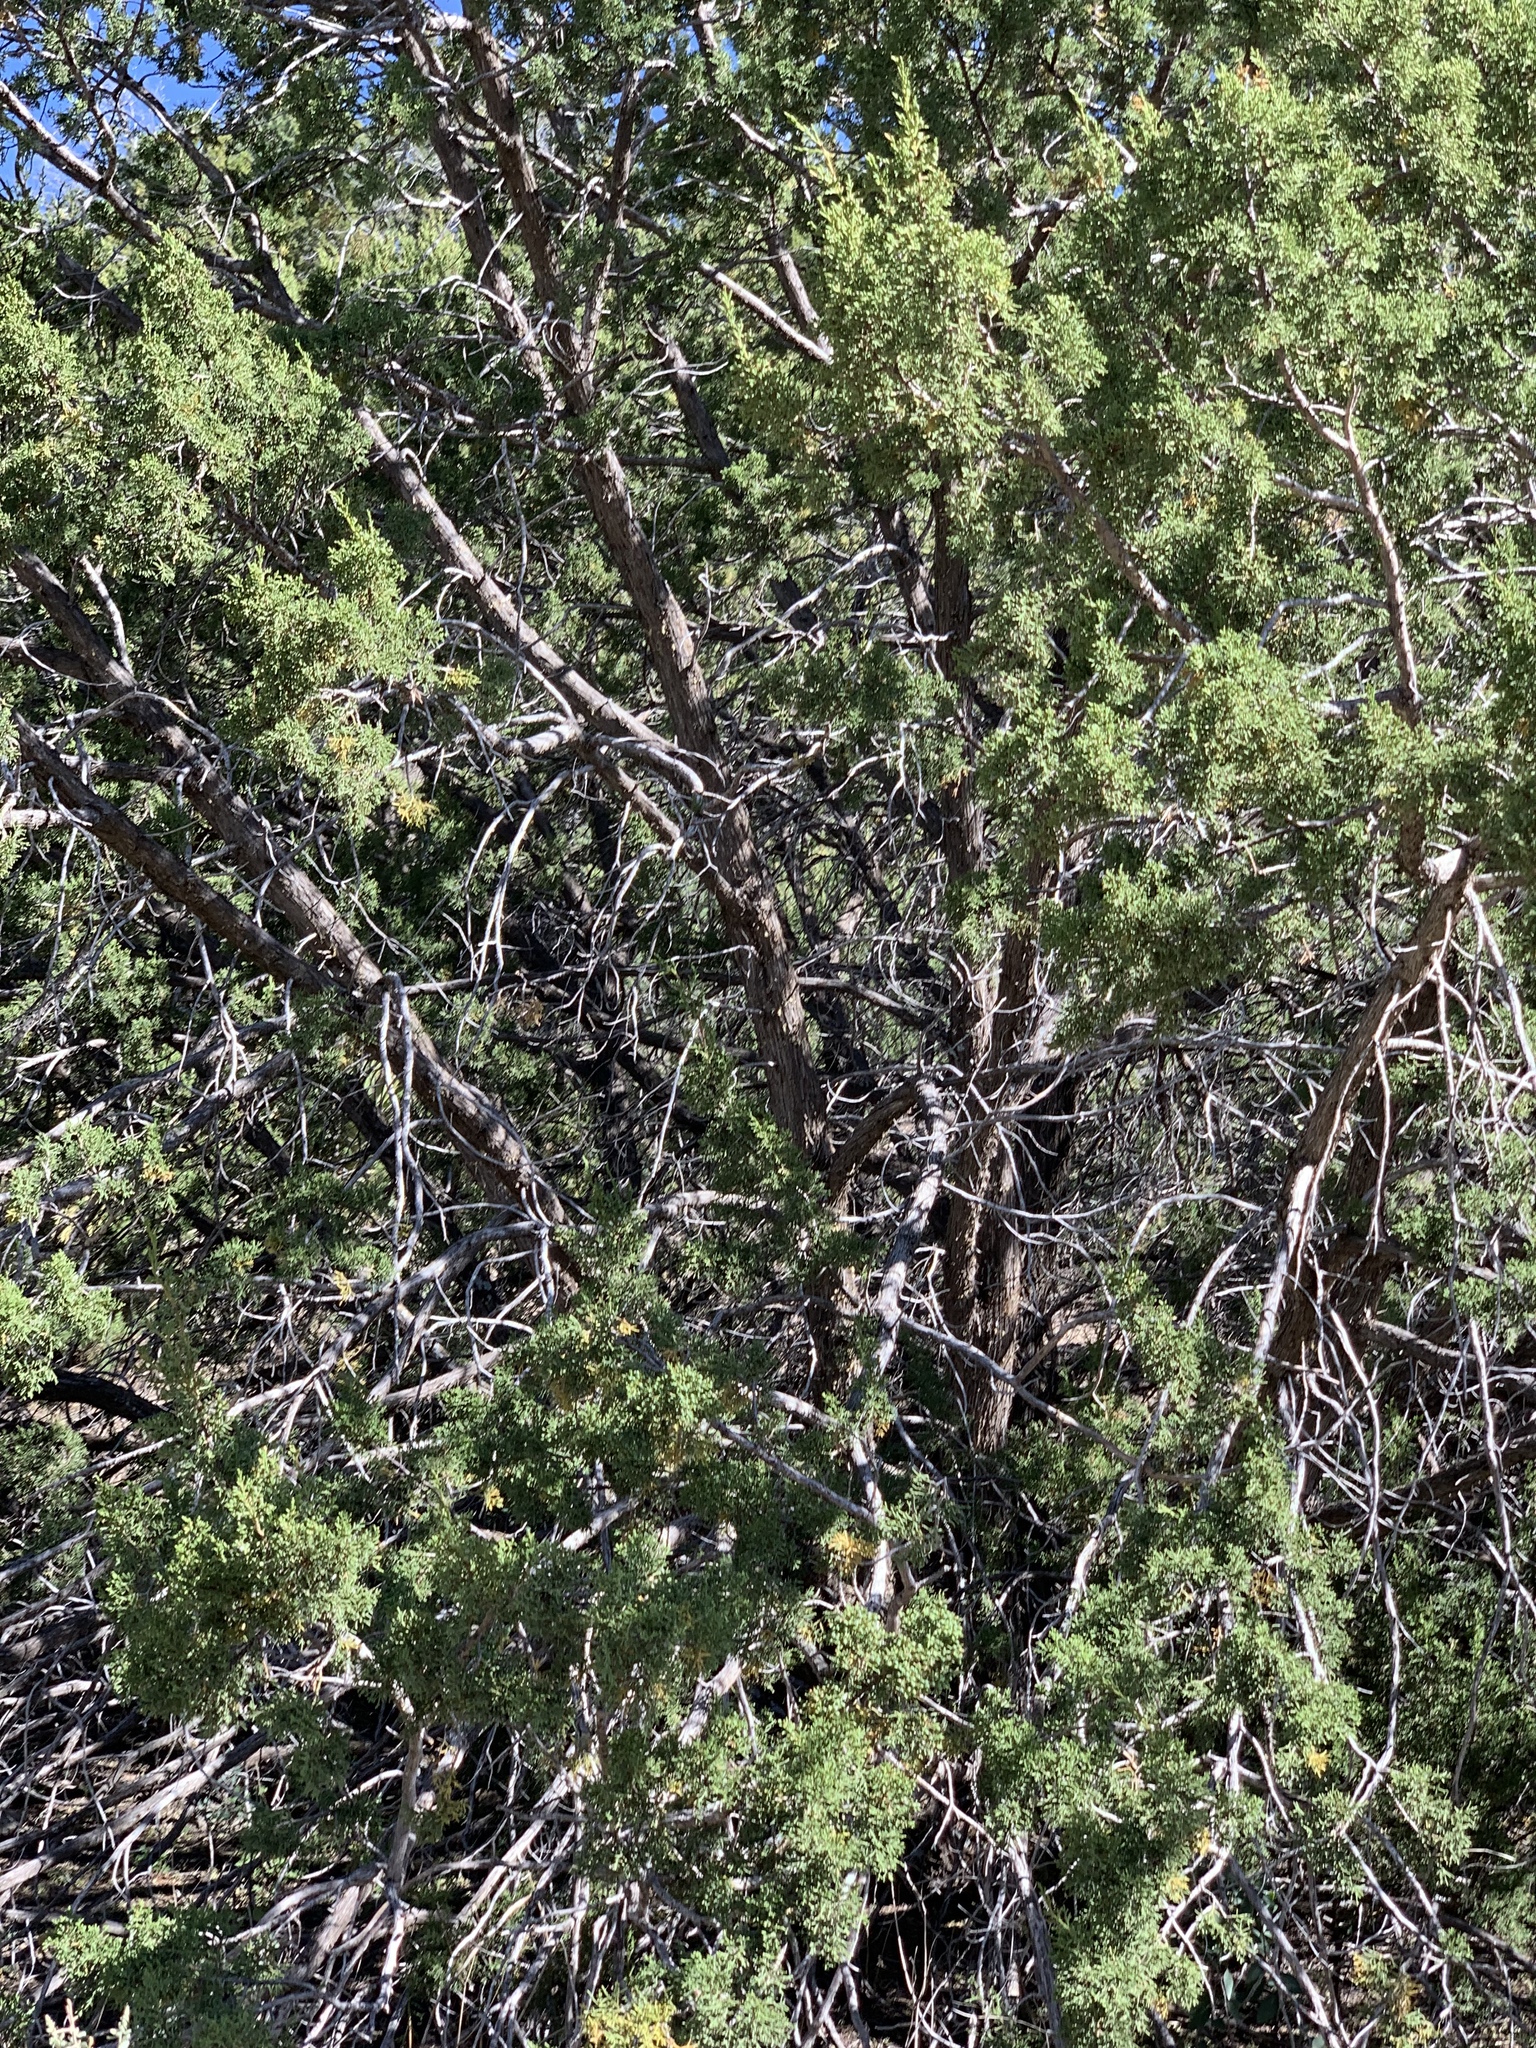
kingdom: Plantae
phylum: Tracheophyta
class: Pinopsida
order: Pinales
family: Cupressaceae
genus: Juniperus
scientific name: Juniperus monosperma
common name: One-seed juniper
